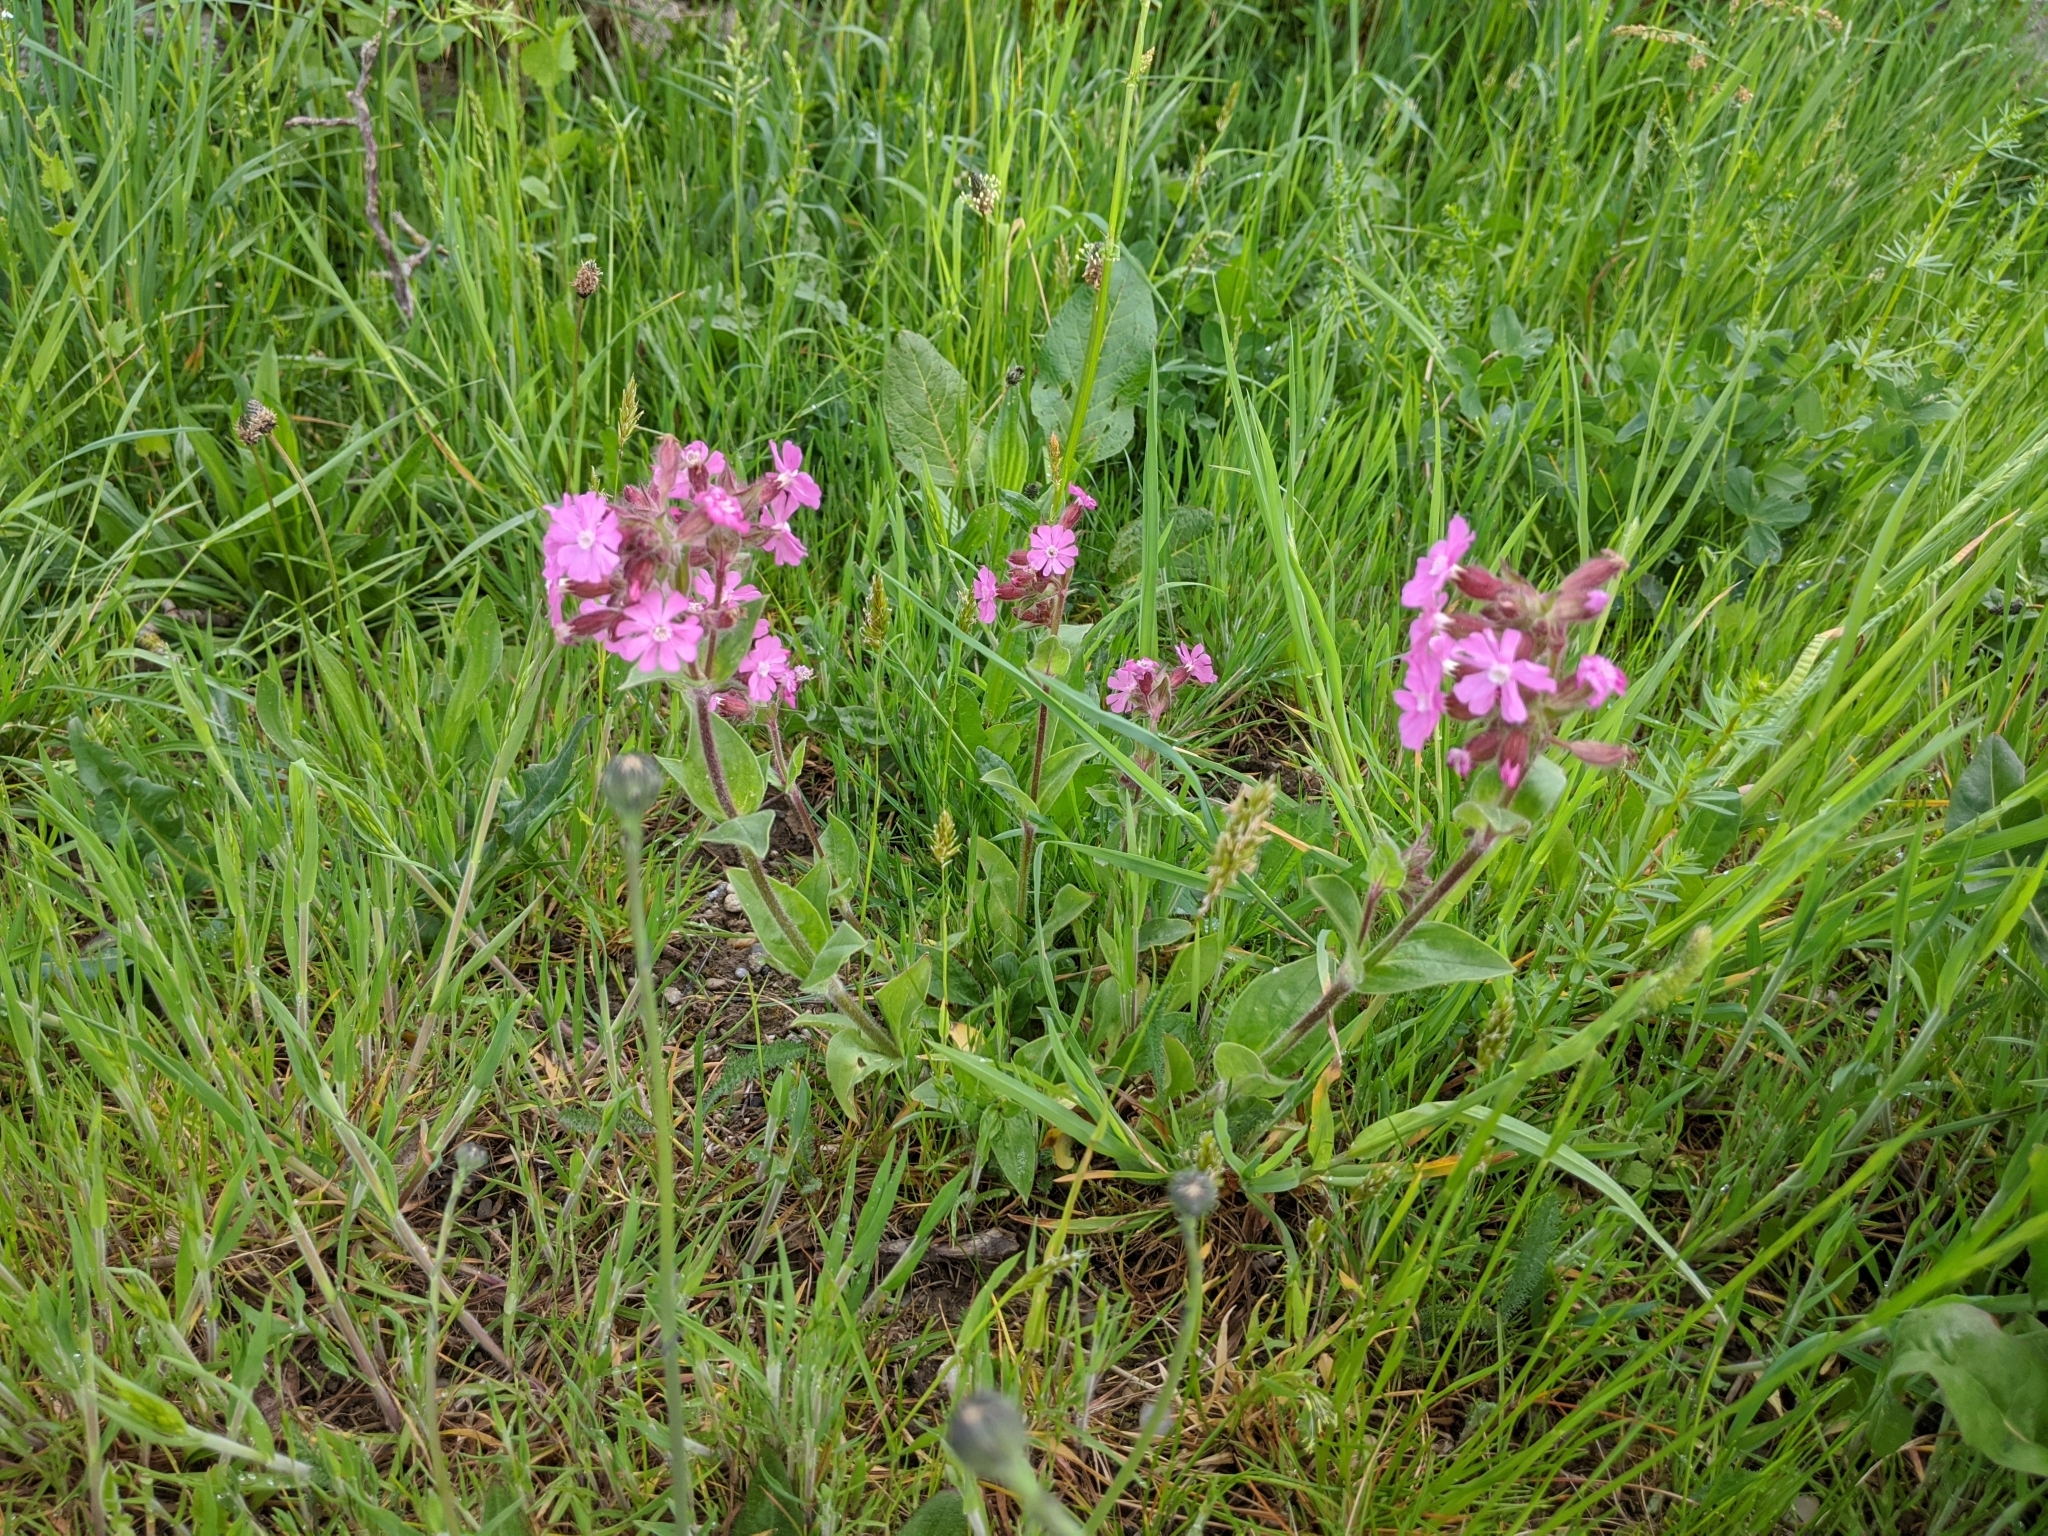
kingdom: Plantae
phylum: Tracheophyta
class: Magnoliopsida
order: Caryophyllales
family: Caryophyllaceae
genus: Silene
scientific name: Silene dioica
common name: Red campion
